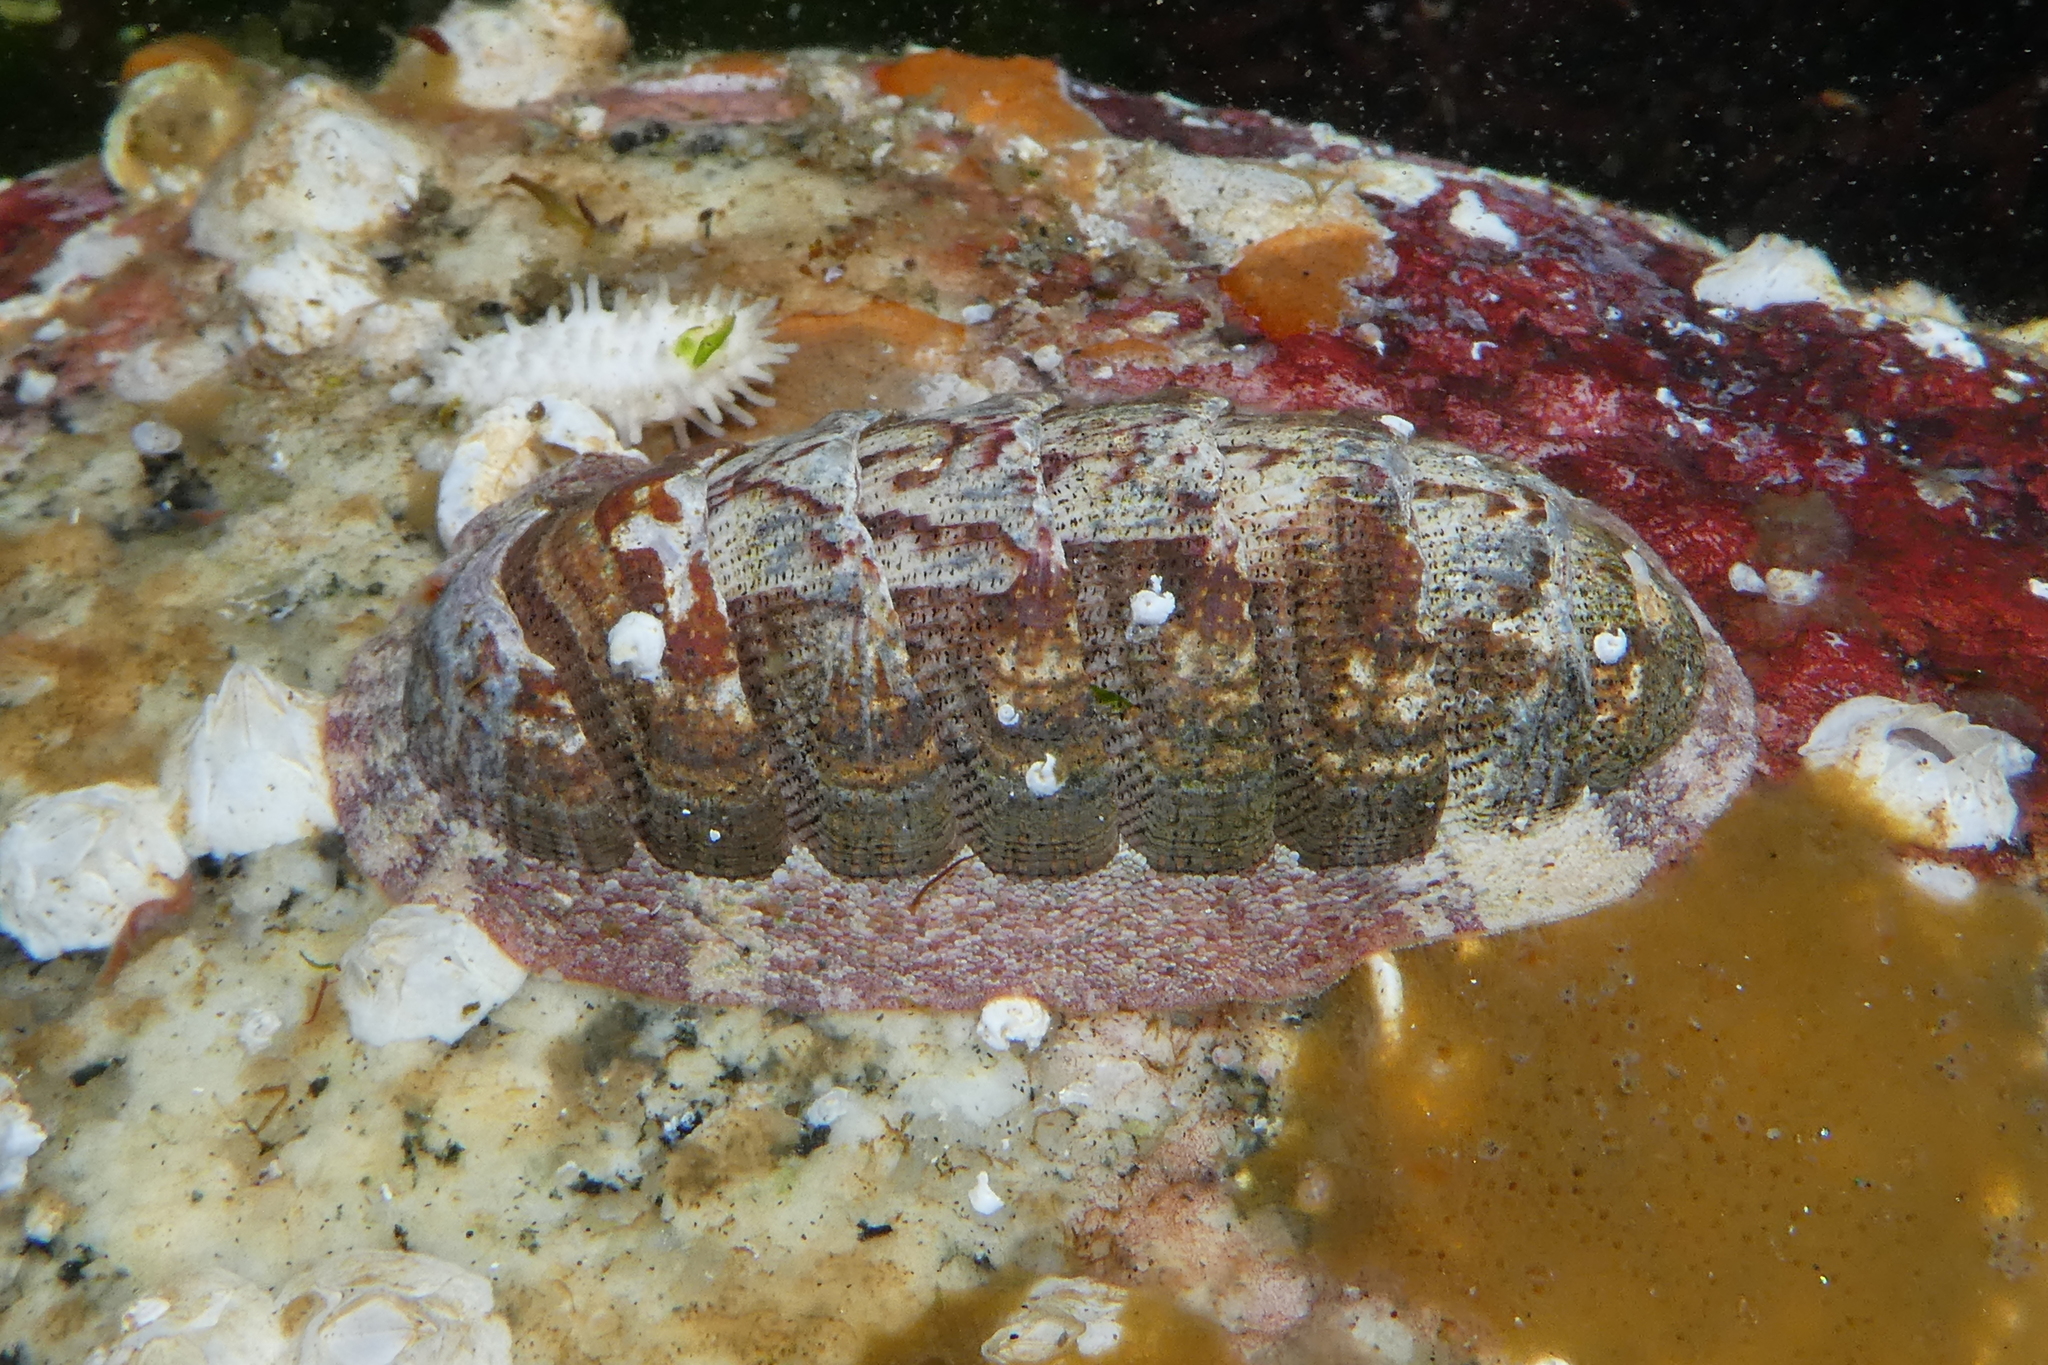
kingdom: Animalia
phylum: Mollusca
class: Polyplacophora
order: Chitonida
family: Ischnochitonidae
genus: Lepidozona
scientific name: Lepidozona mertensii
